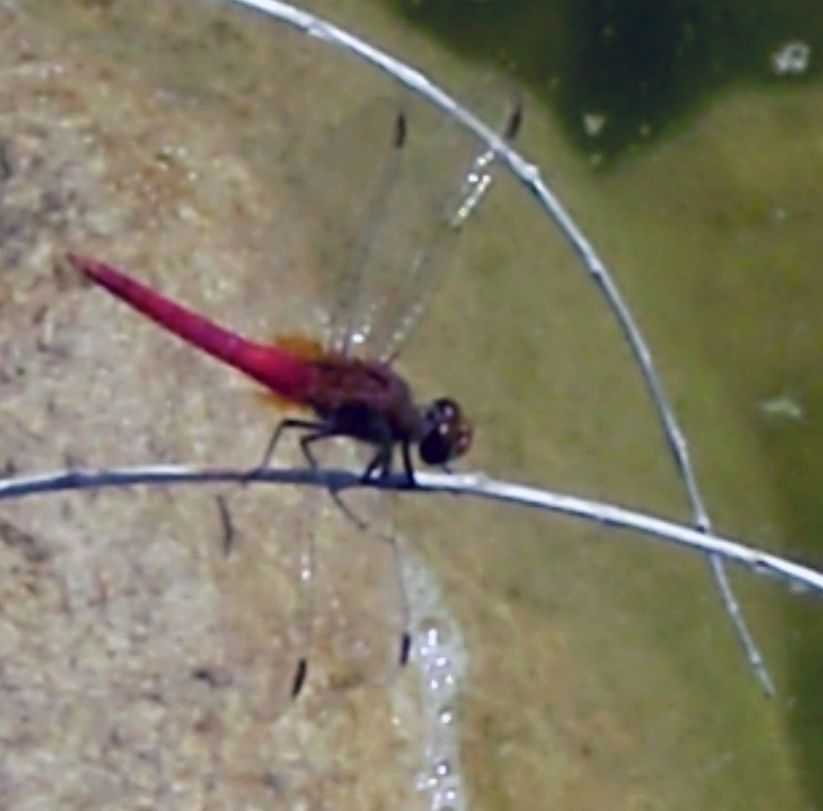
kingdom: Animalia
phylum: Arthropoda
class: Insecta
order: Odonata
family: Libellulidae
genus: Brachymesia
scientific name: Brachymesia furcata
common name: Red-taled pennant
